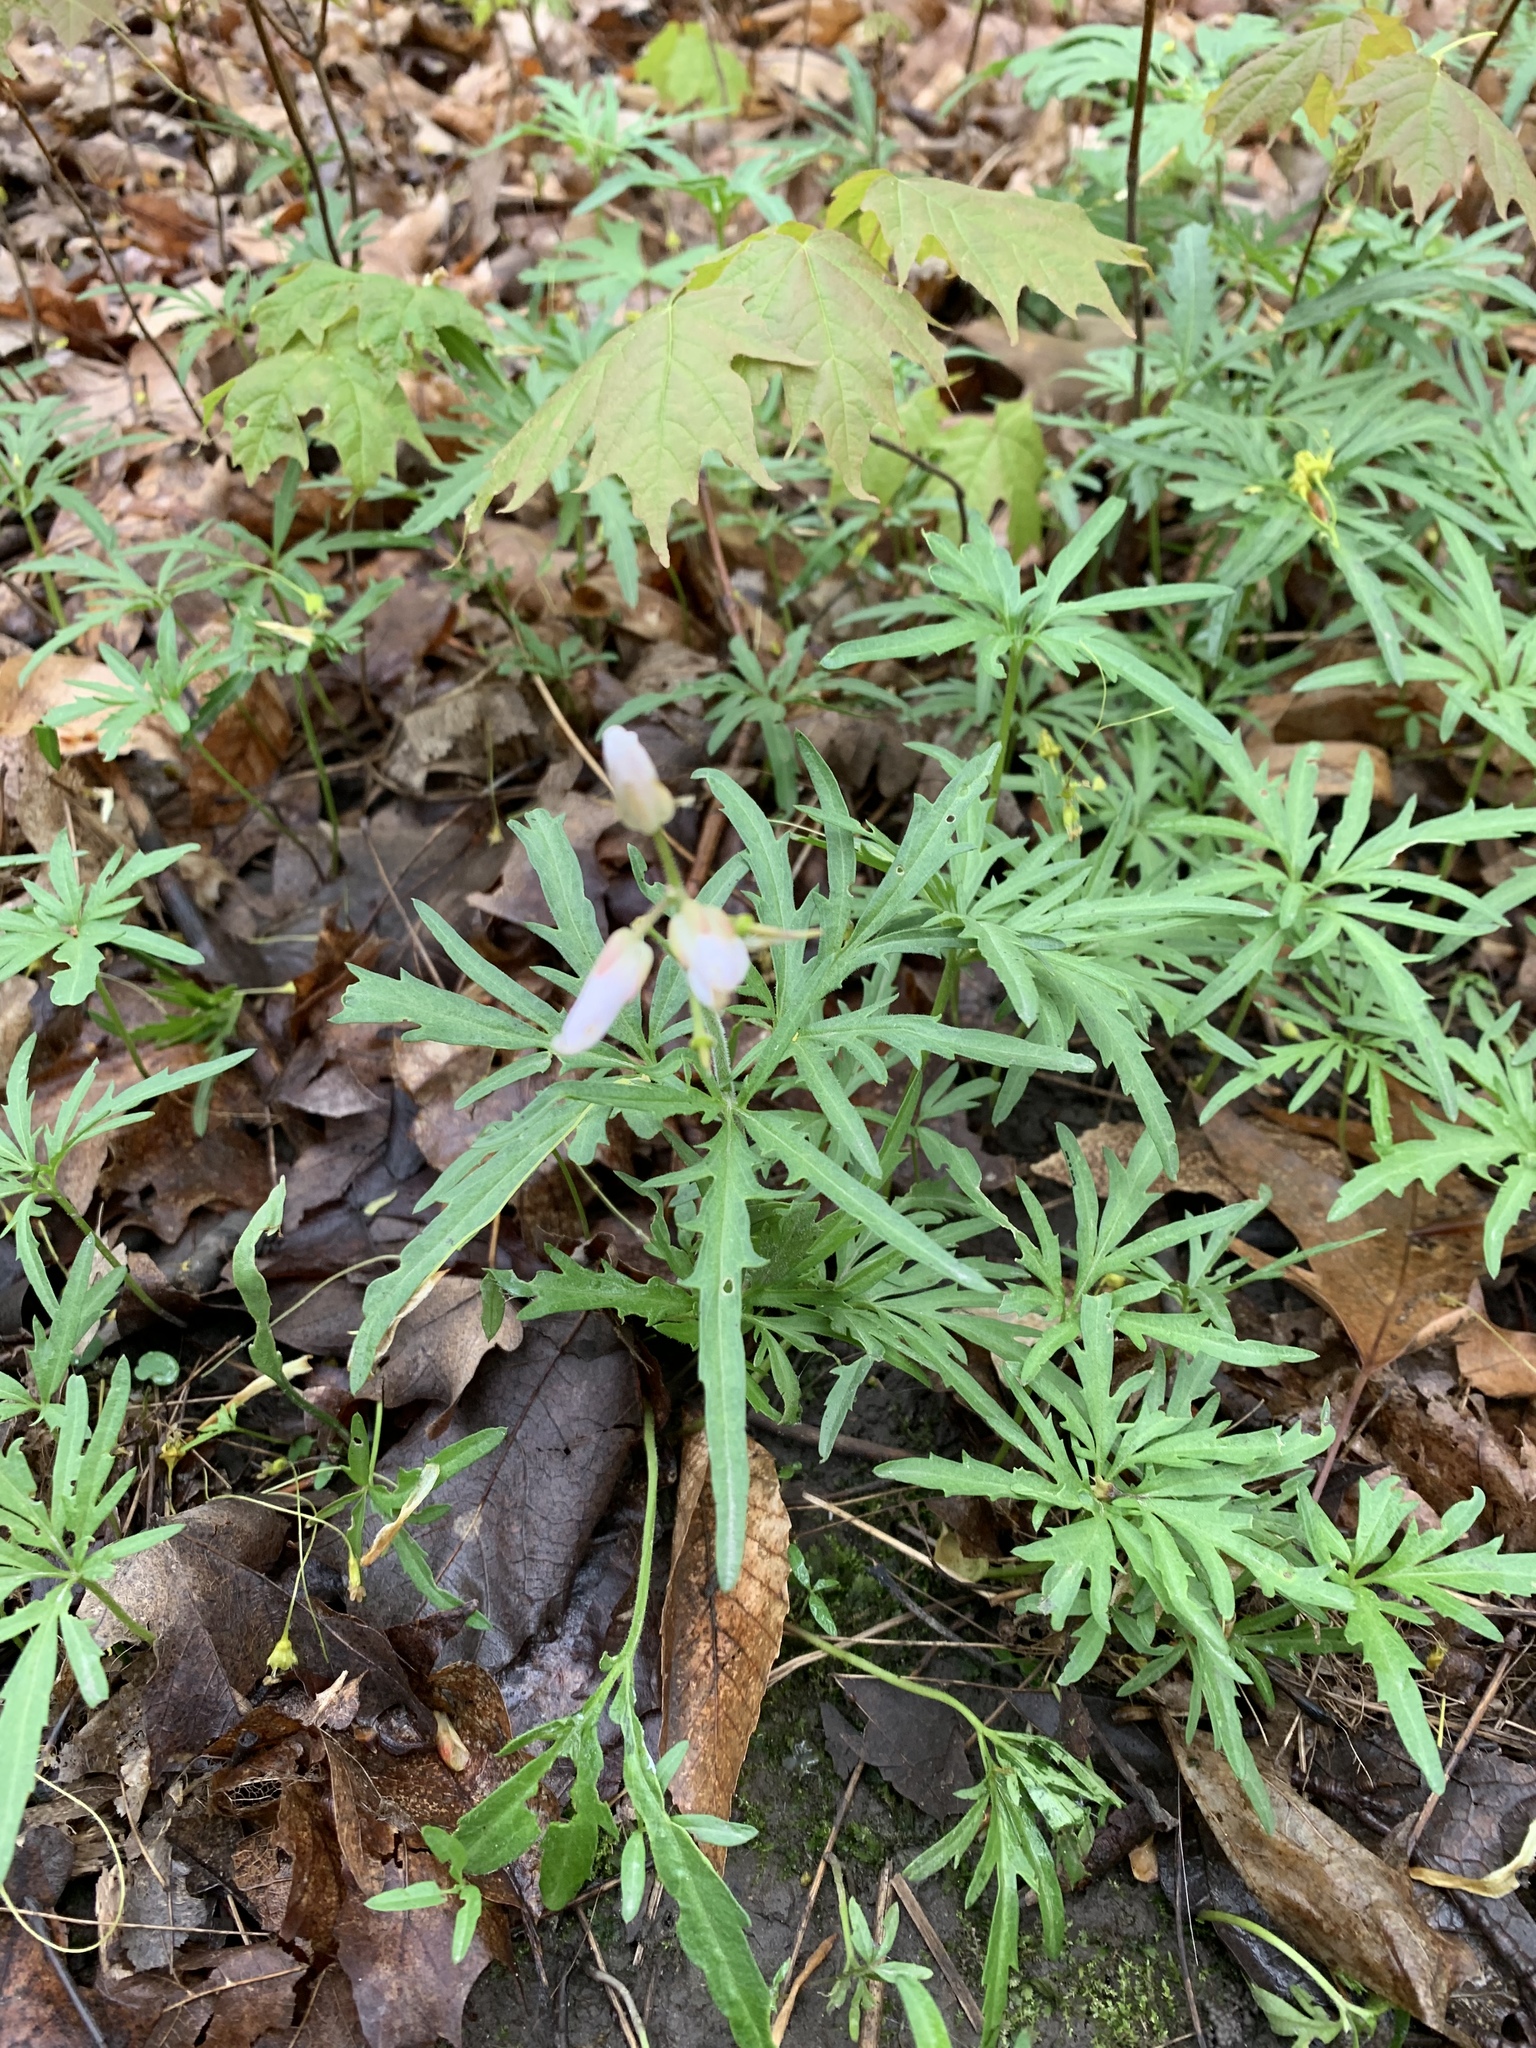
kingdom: Plantae
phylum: Tracheophyta
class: Magnoliopsida
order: Brassicales
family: Brassicaceae
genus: Cardamine
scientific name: Cardamine concatenata
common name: Cut-leaf toothcup
